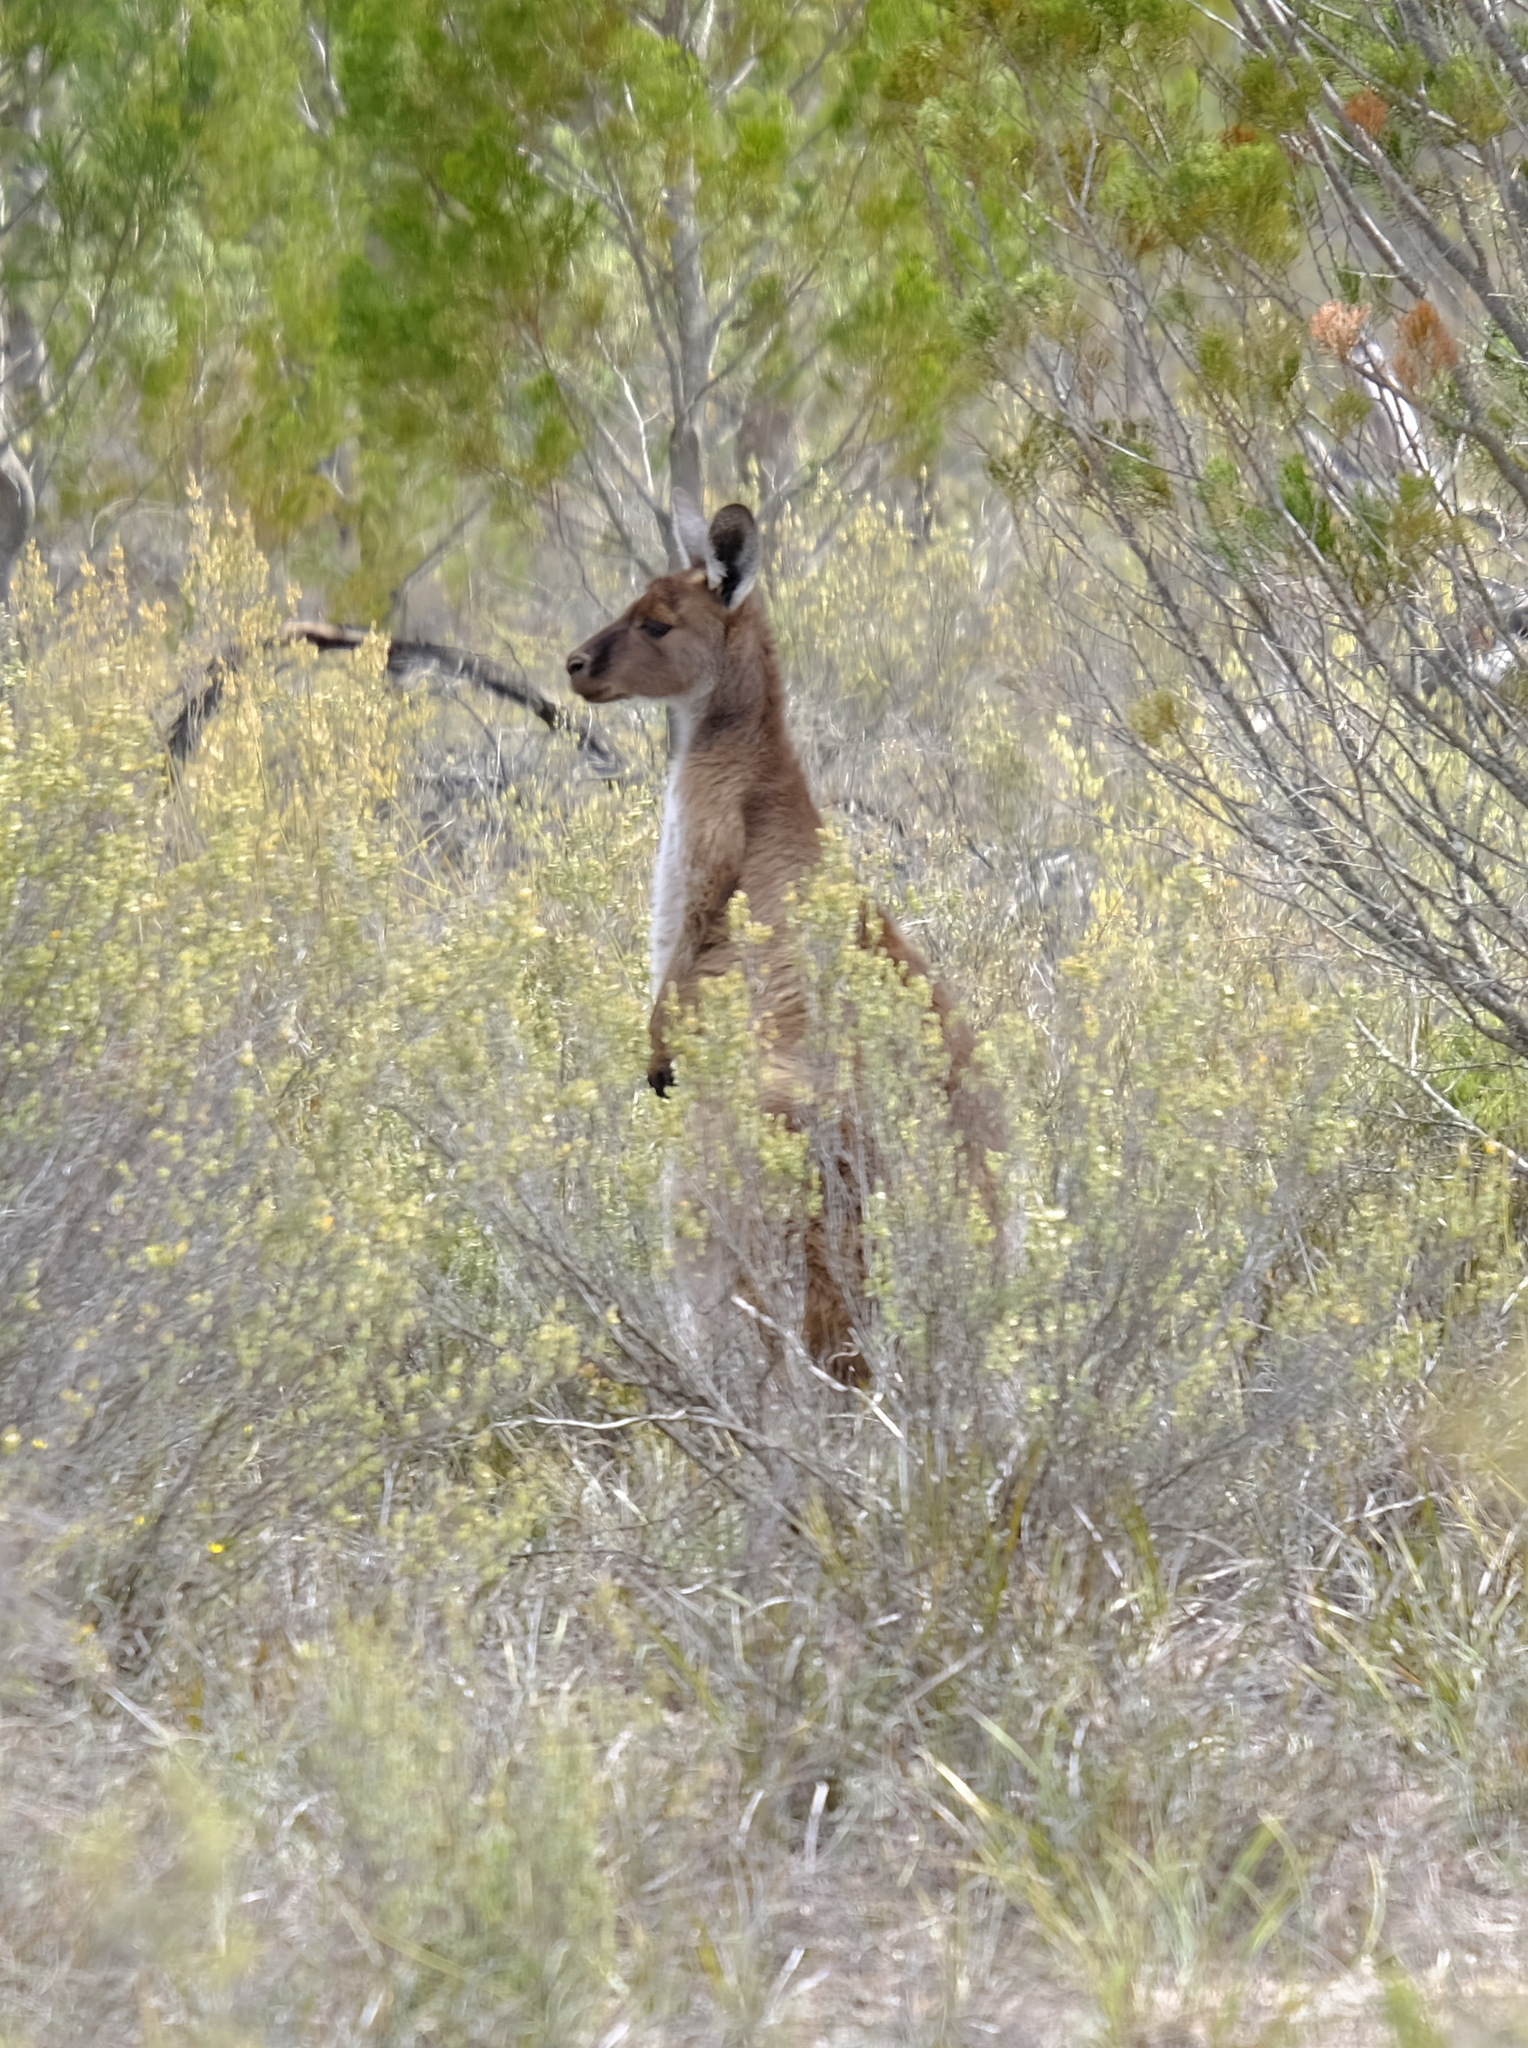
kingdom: Animalia
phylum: Chordata
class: Mammalia
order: Diprotodontia
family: Macropodidae
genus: Macropus
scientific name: Macropus fuliginosus
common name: Western grey kangaroo
